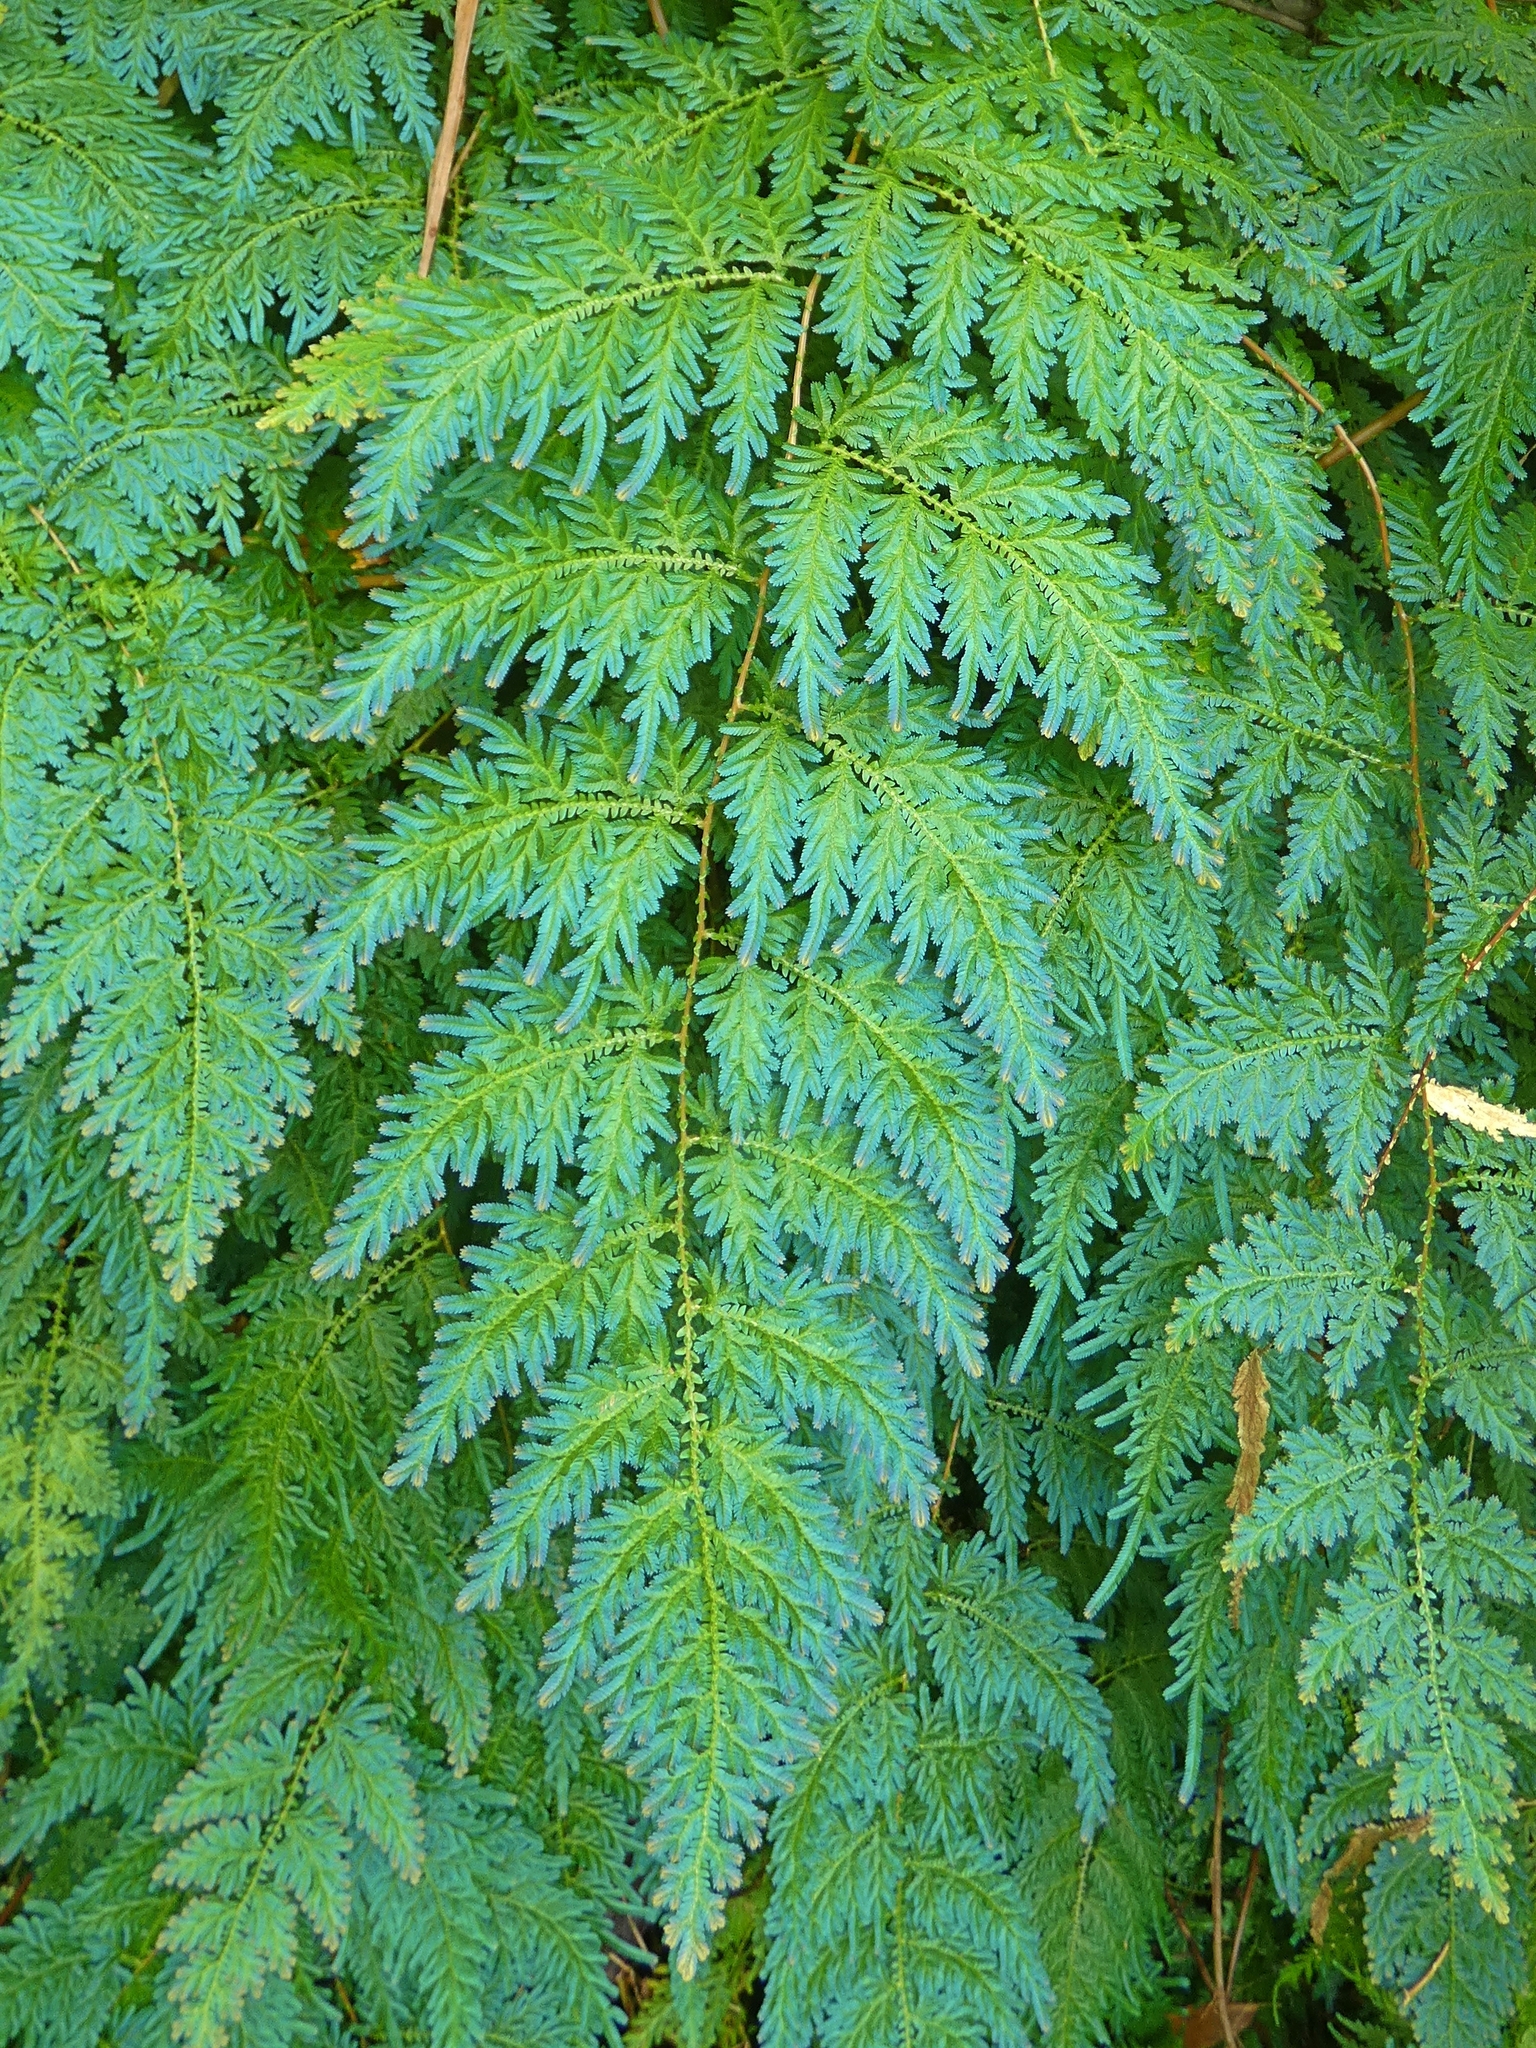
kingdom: Plantae
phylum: Tracheophyta
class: Lycopodiopsida
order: Selaginellales
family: Selaginellaceae
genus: Selaginella
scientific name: Selaginella willdenowii
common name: Willdenow's spikemoss
